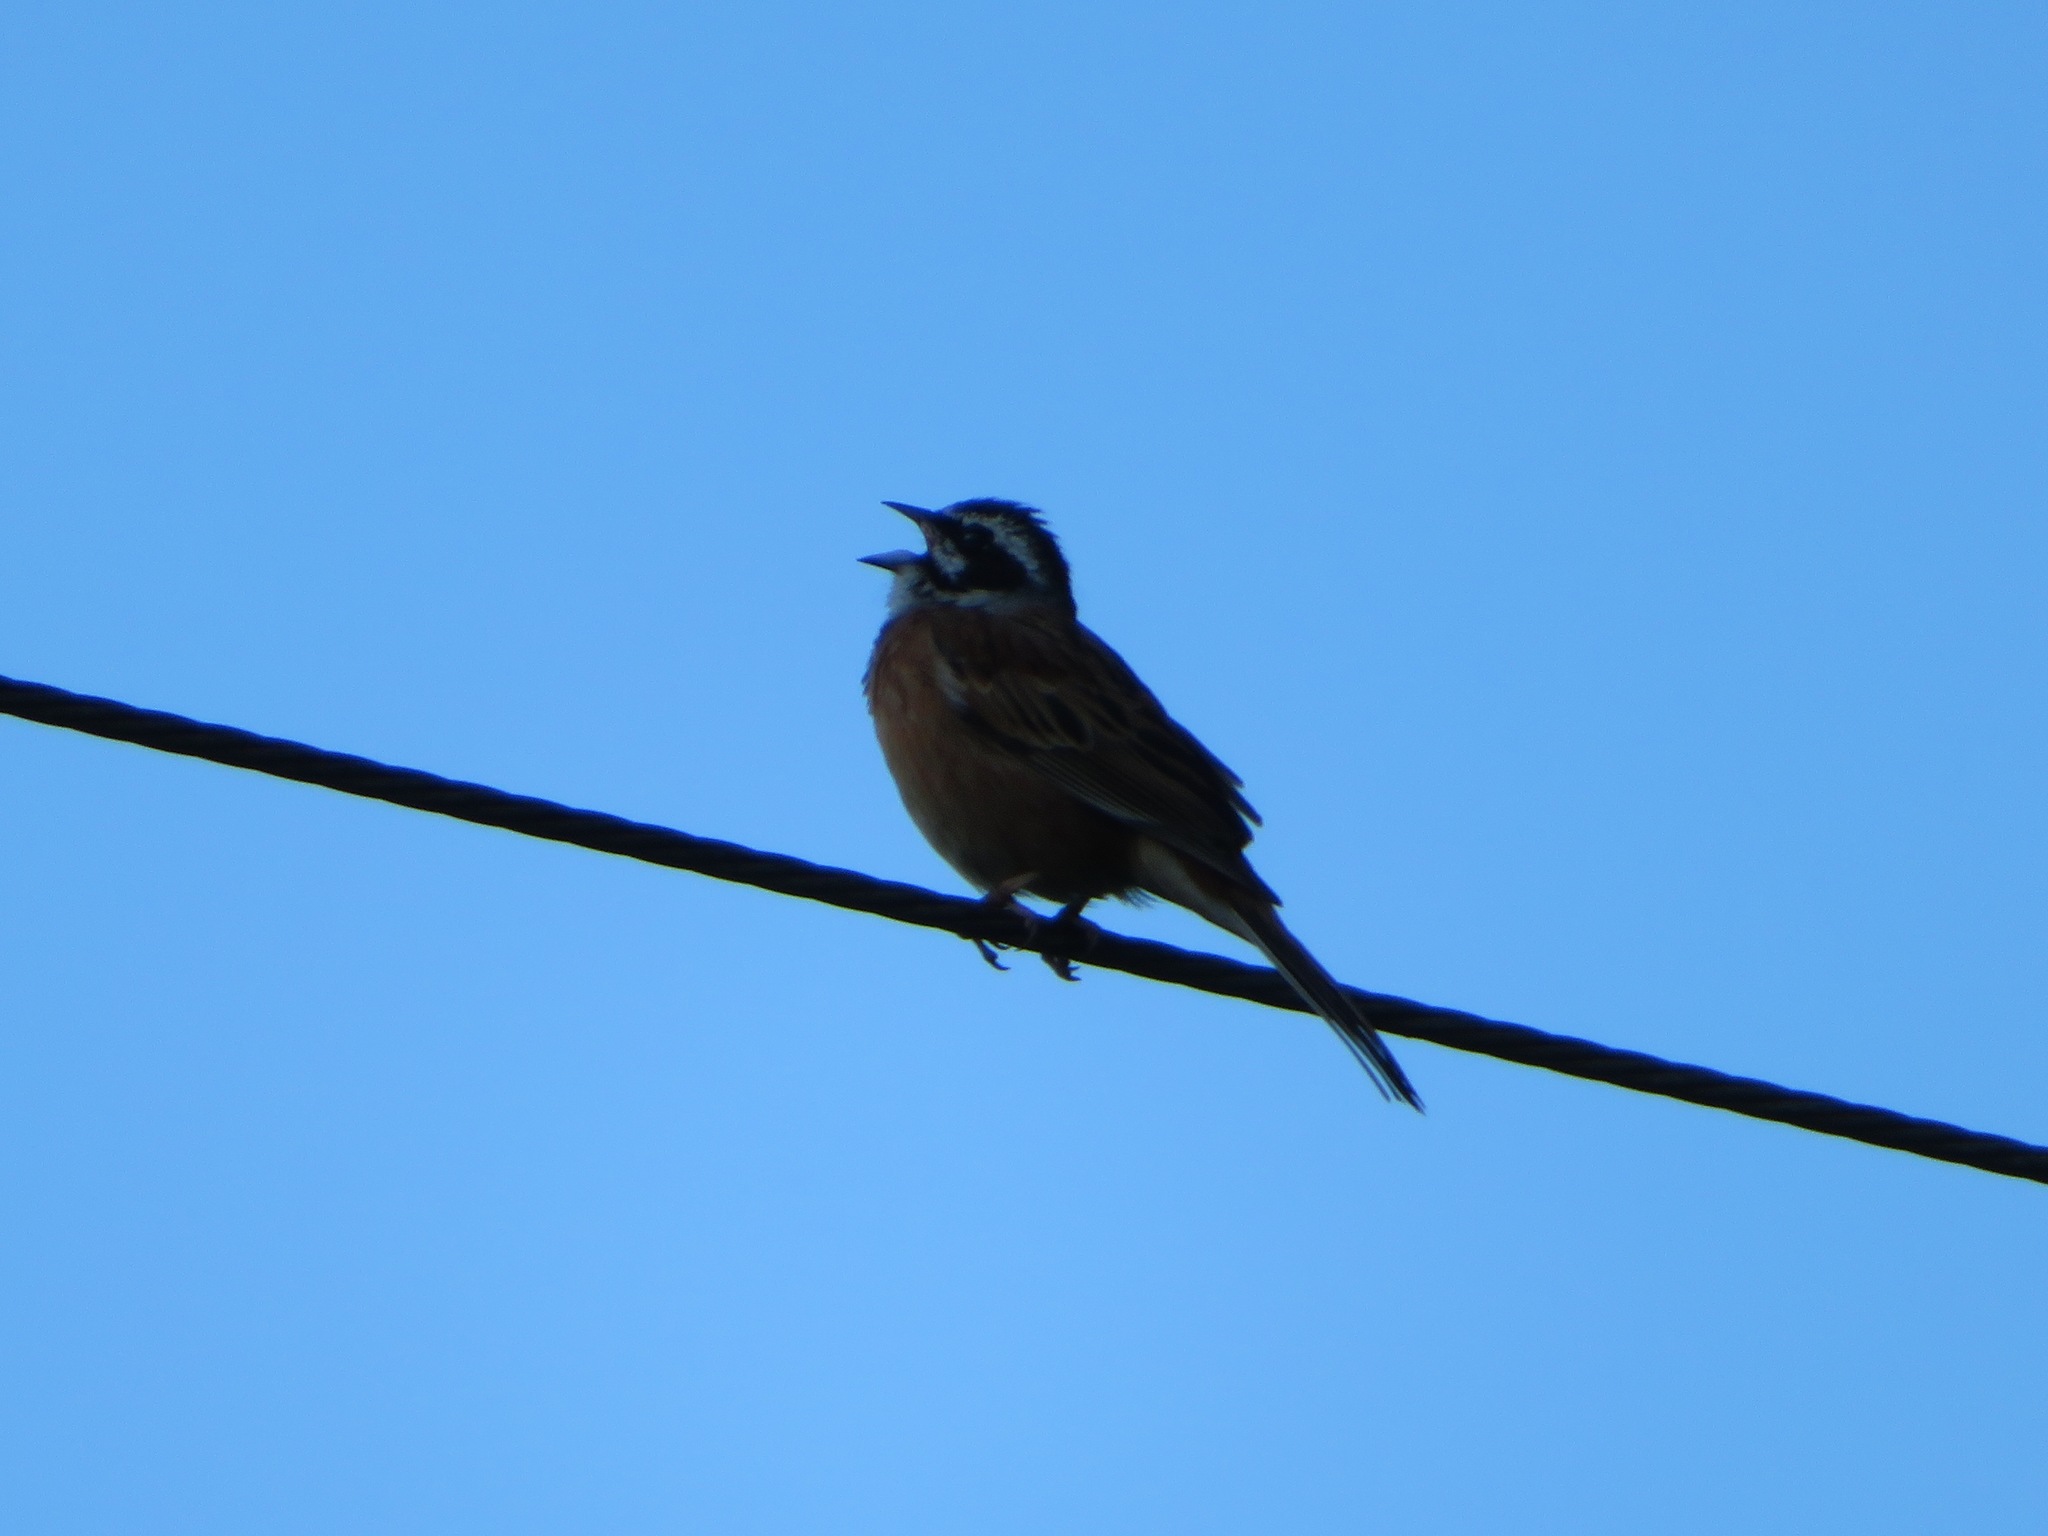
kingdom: Animalia
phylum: Chordata
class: Aves
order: Passeriformes
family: Emberizidae
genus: Emberiza
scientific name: Emberiza cioides
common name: Meadow bunting
